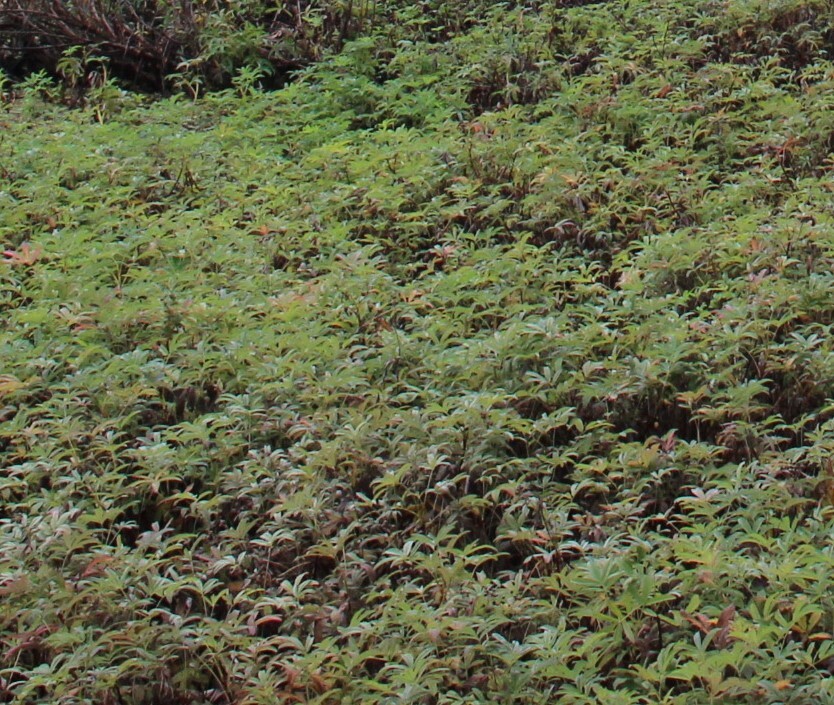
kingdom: Plantae
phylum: Tracheophyta
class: Magnoliopsida
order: Rosales
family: Rosaceae
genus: Comarum
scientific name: Comarum palustre
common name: Marsh cinquefoil
